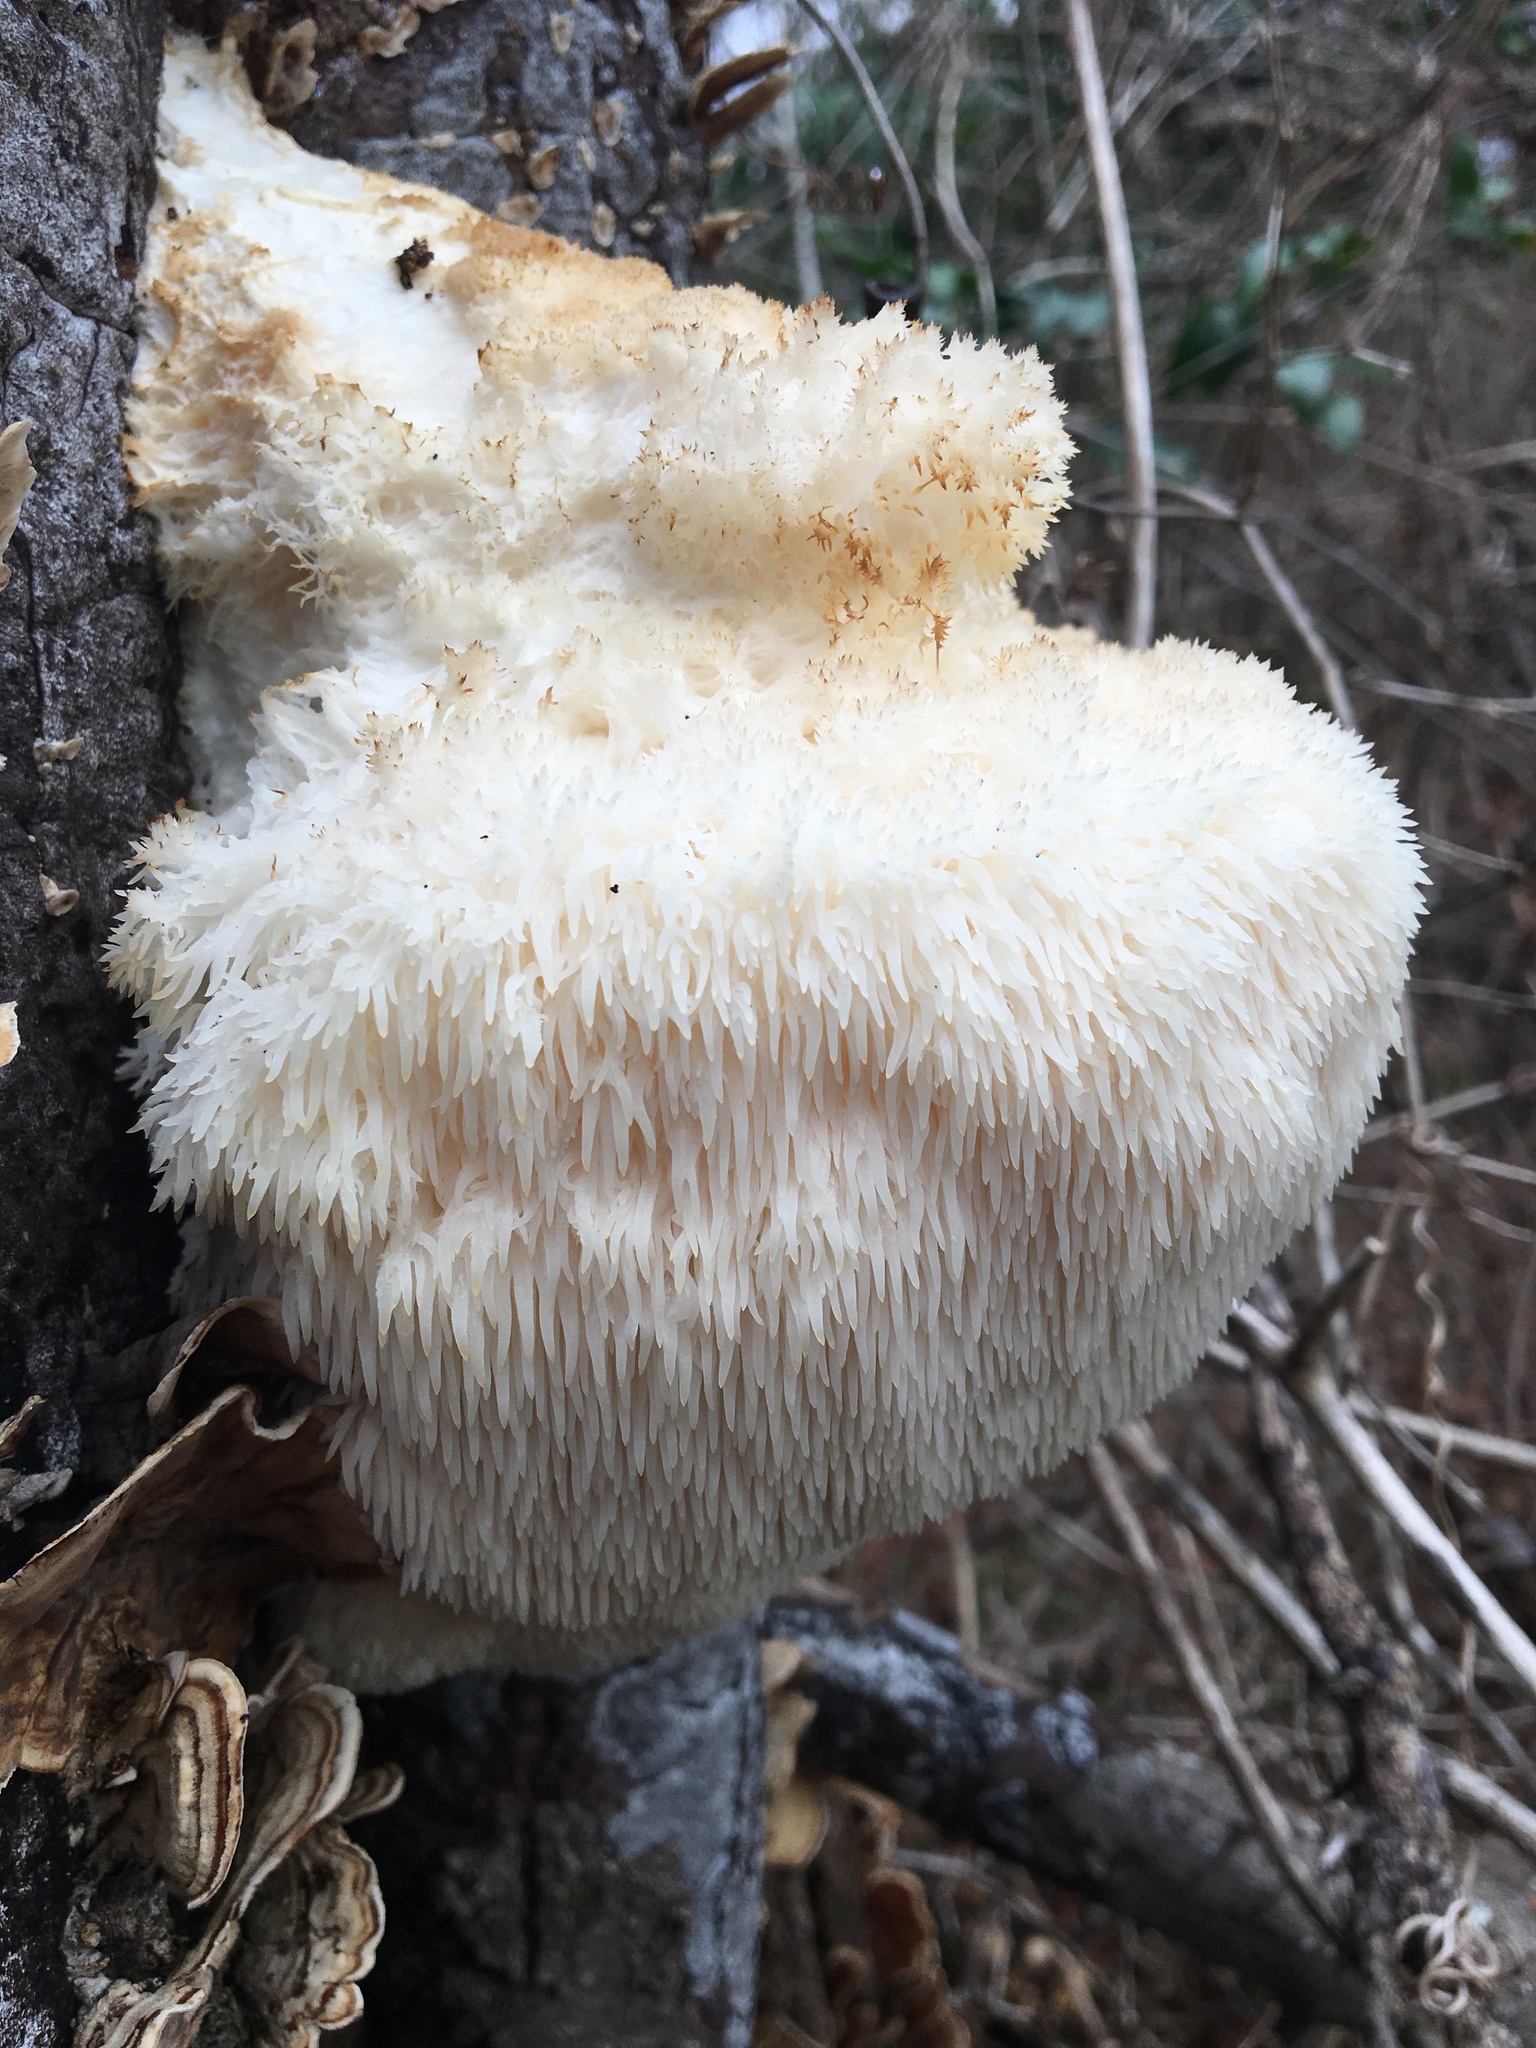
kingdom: Fungi
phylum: Basidiomycota
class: Agaricomycetes
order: Russulales
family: Hericiaceae
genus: Hericium
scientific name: Hericium erinaceus
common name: Bearded tooth
